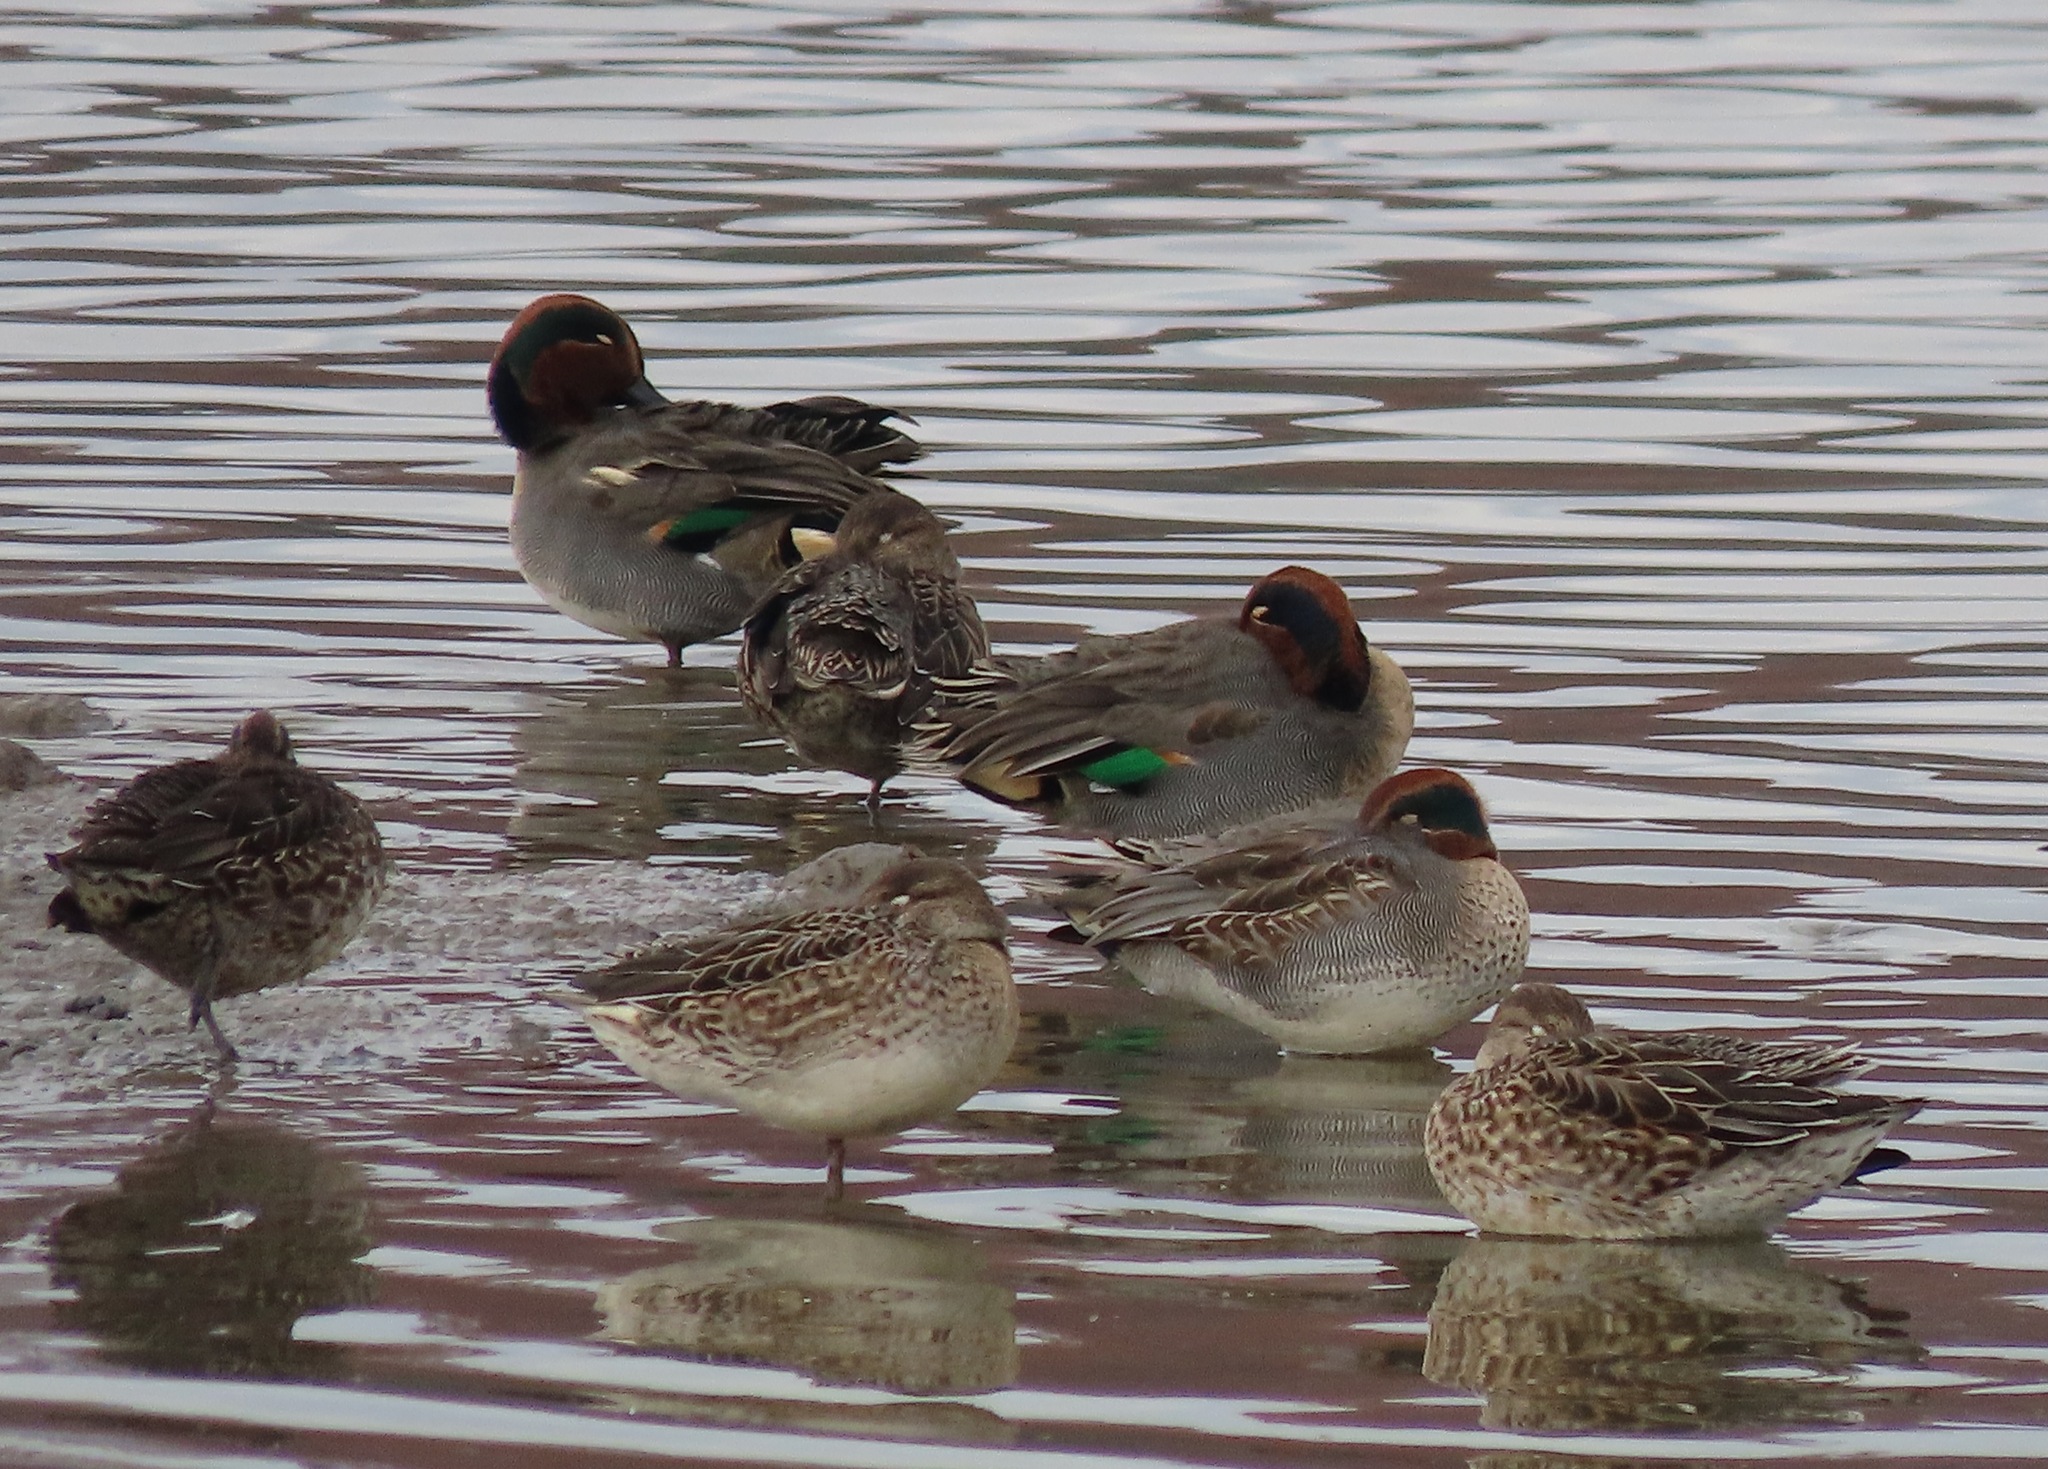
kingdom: Animalia
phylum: Chordata
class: Aves
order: Anseriformes
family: Anatidae
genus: Anas
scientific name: Anas crecca
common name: Eurasian teal
